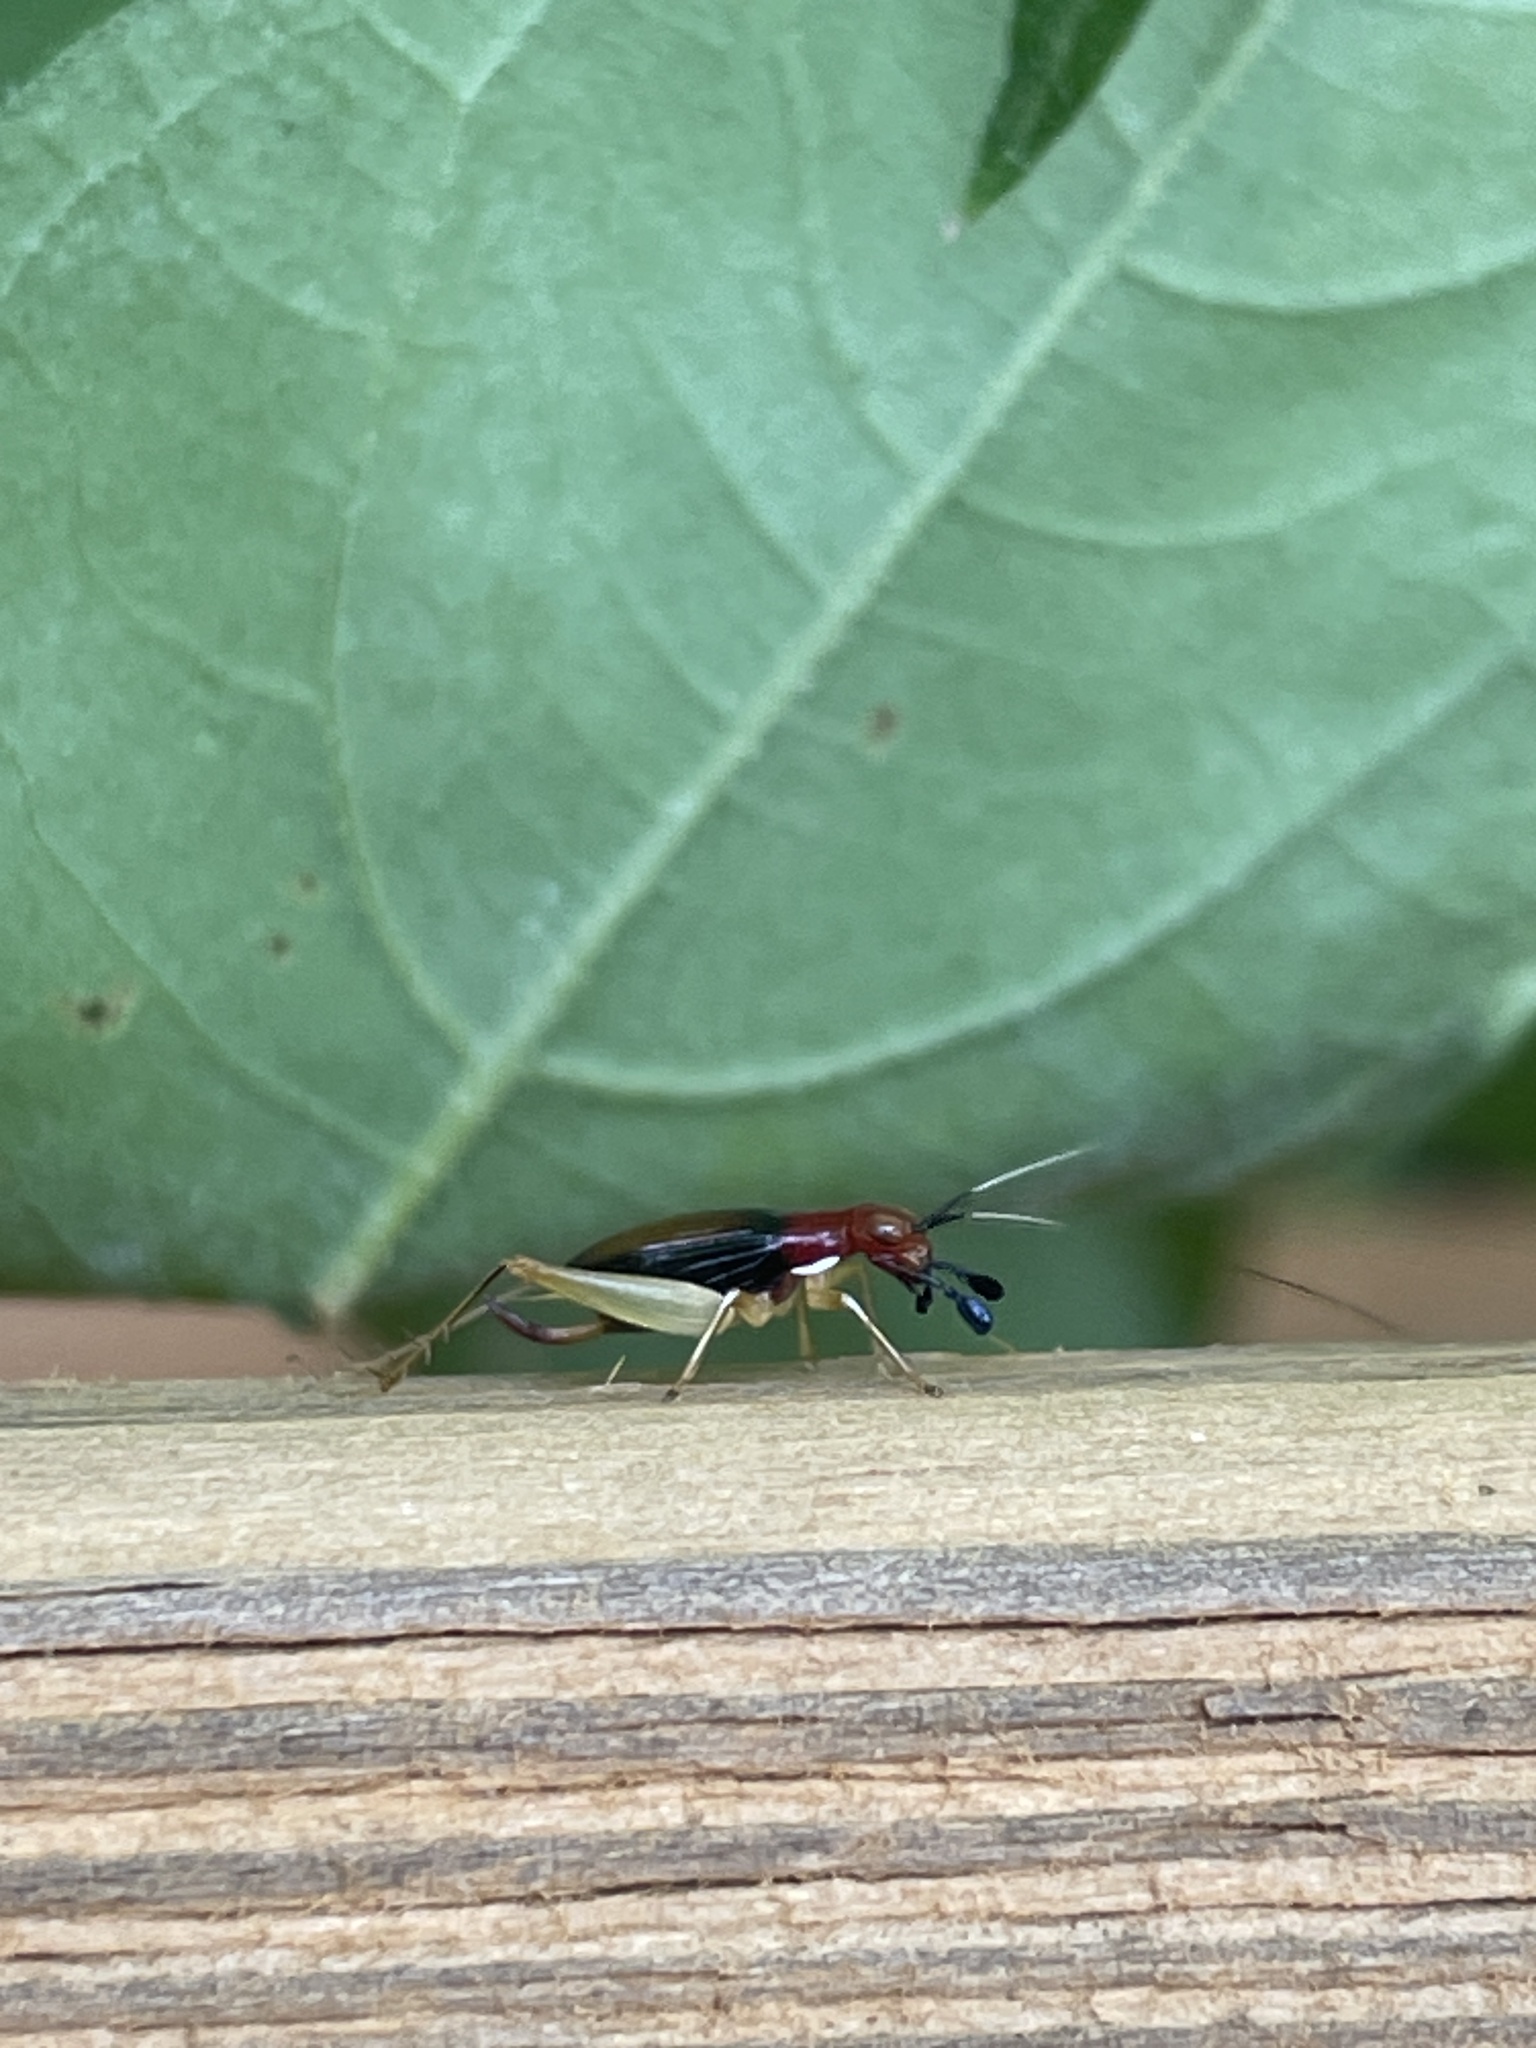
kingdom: Animalia
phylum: Arthropoda
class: Insecta
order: Orthoptera
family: Trigonidiidae
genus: Phyllopalpus
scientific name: Phyllopalpus pulchellus
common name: Handsome trig
